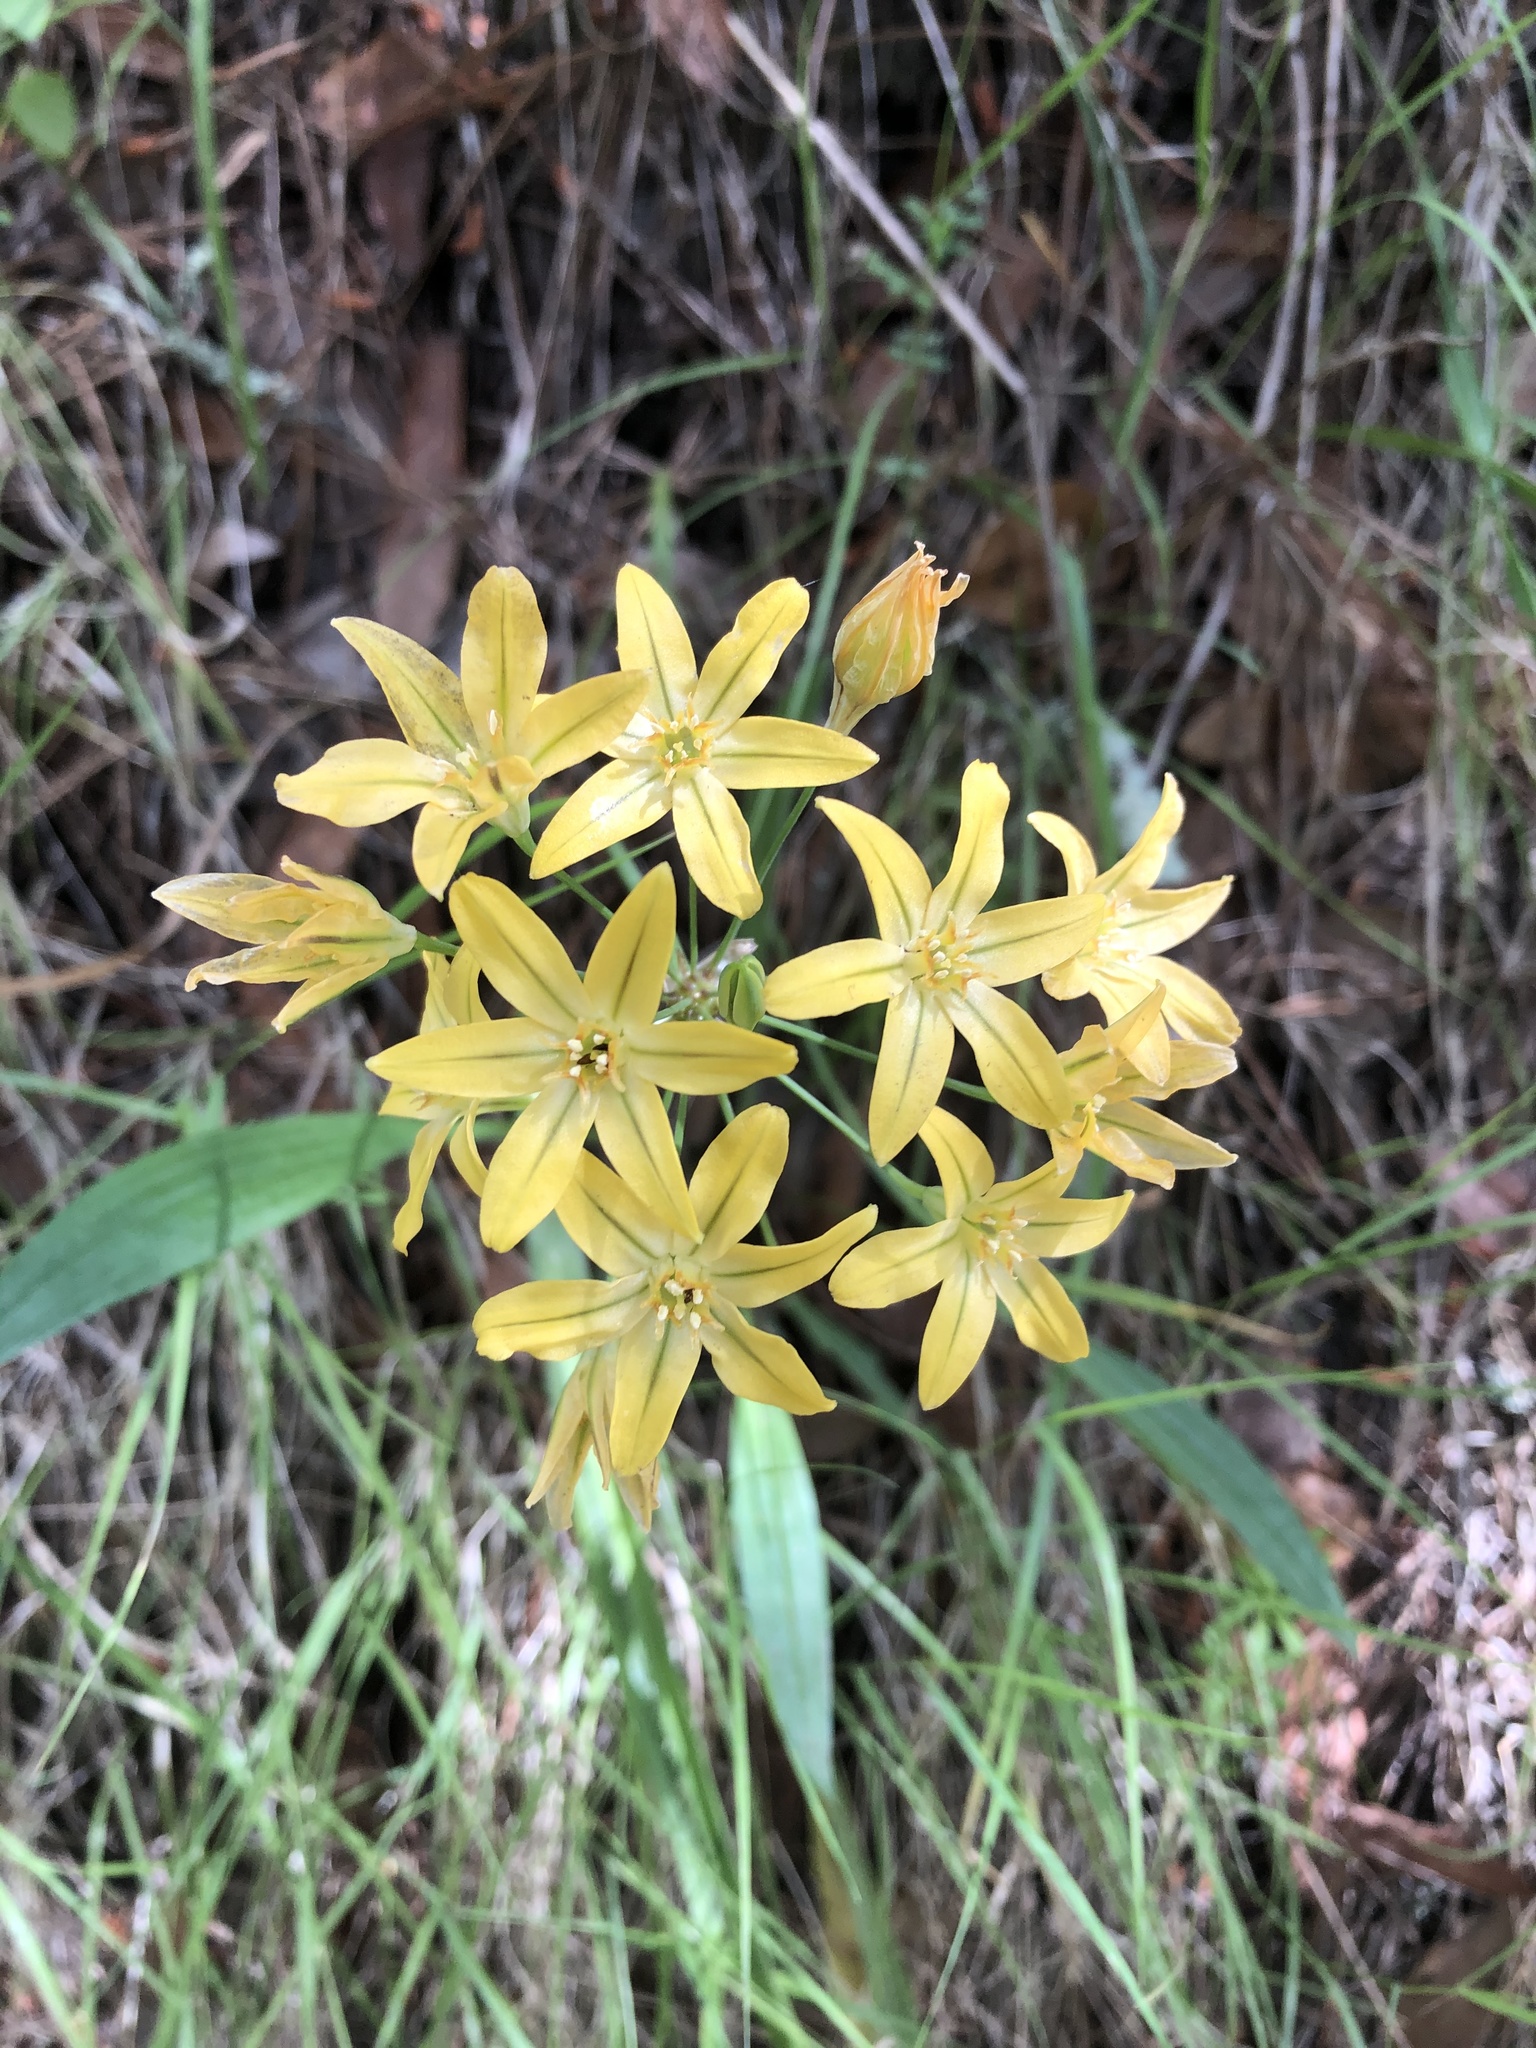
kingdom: Plantae
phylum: Tracheophyta
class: Liliopsida
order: Asparagales
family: Asparagaceae
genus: Triteleia
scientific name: Triteleia ixioides
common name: Yellow-brodiaea
